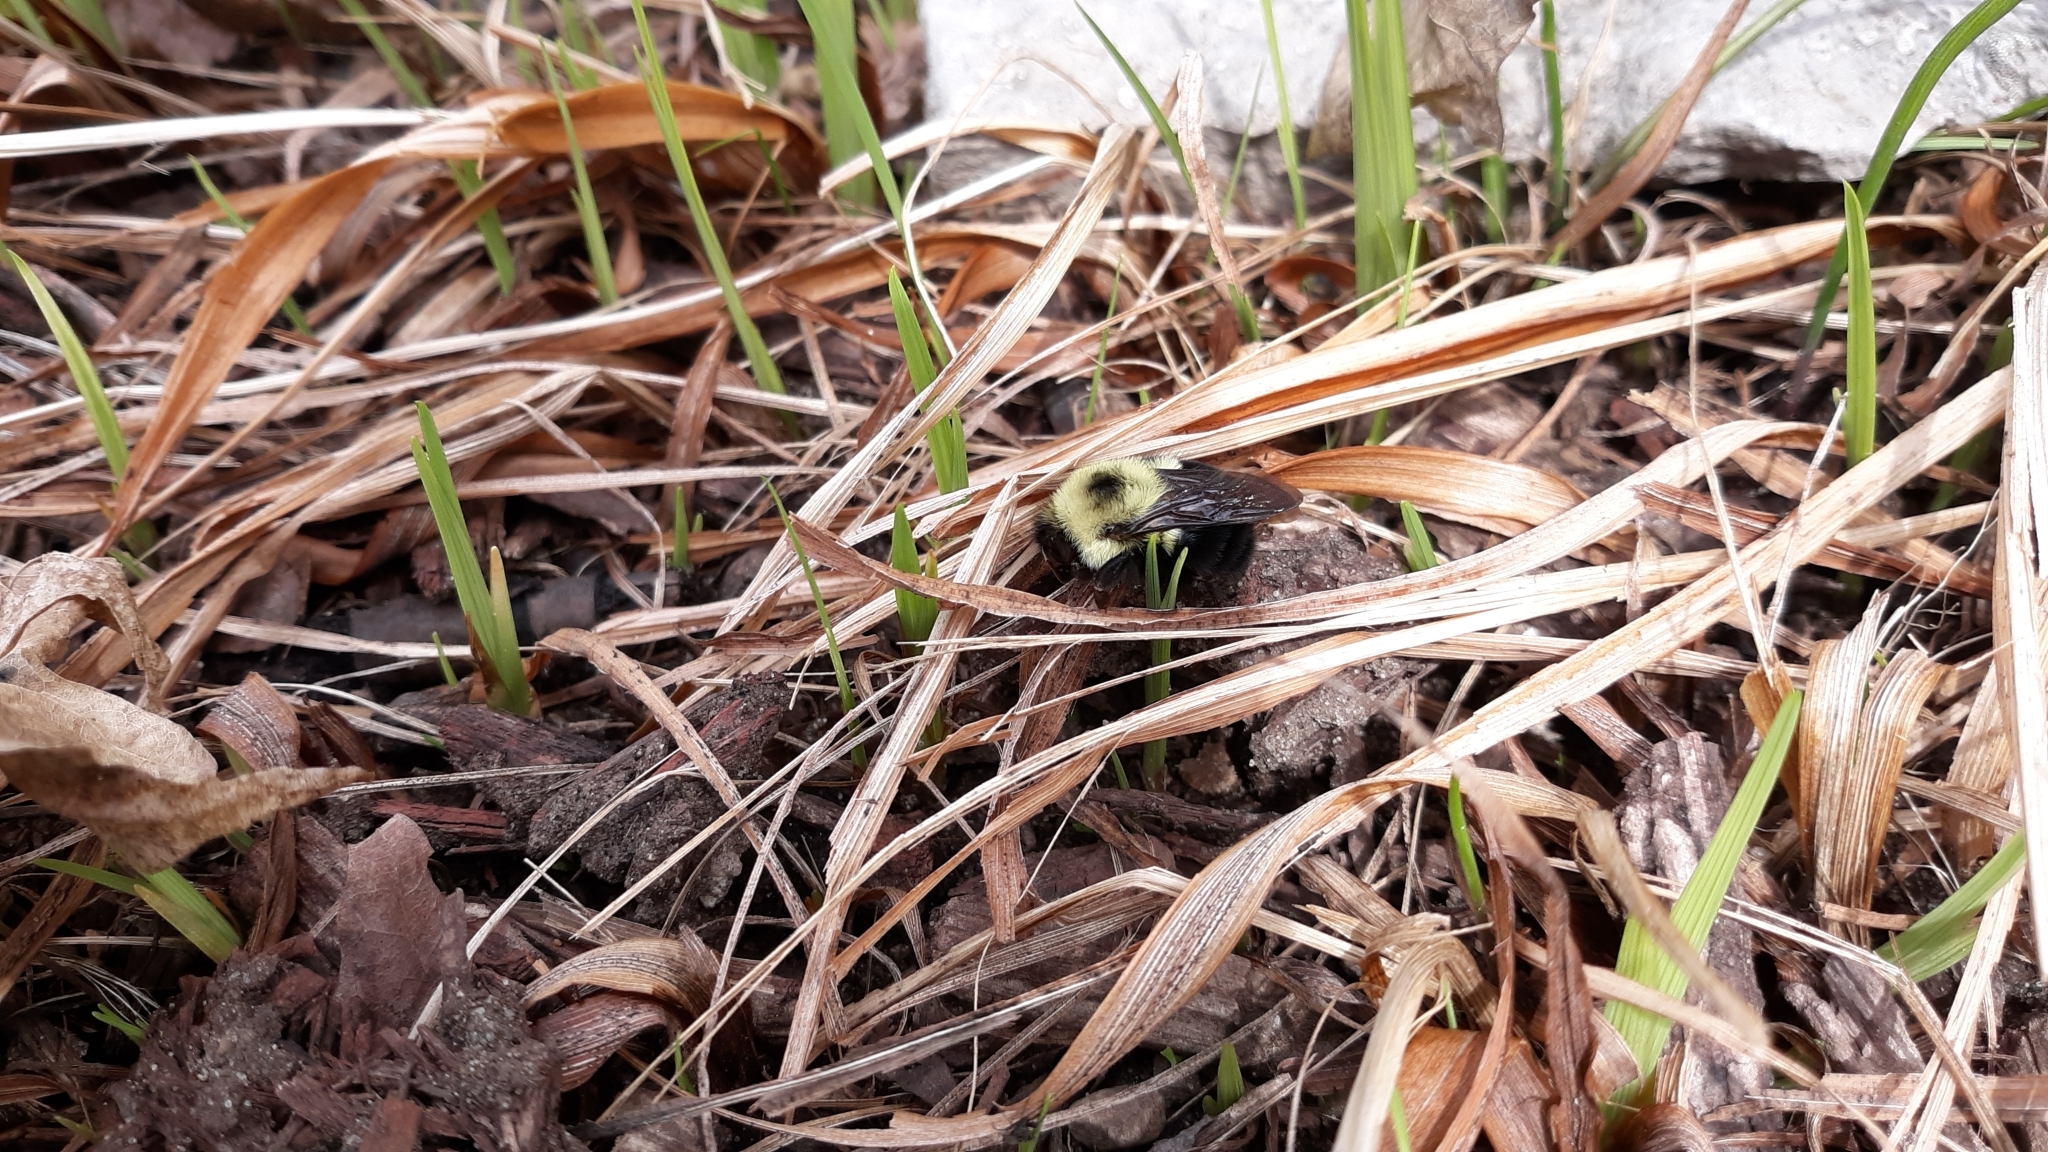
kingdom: Animalia
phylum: Arthropoda
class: Insecta
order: Hymenoptera
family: Apidae
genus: Bombus
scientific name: Bombus bimaculatus
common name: Two-spotted bumble bee
